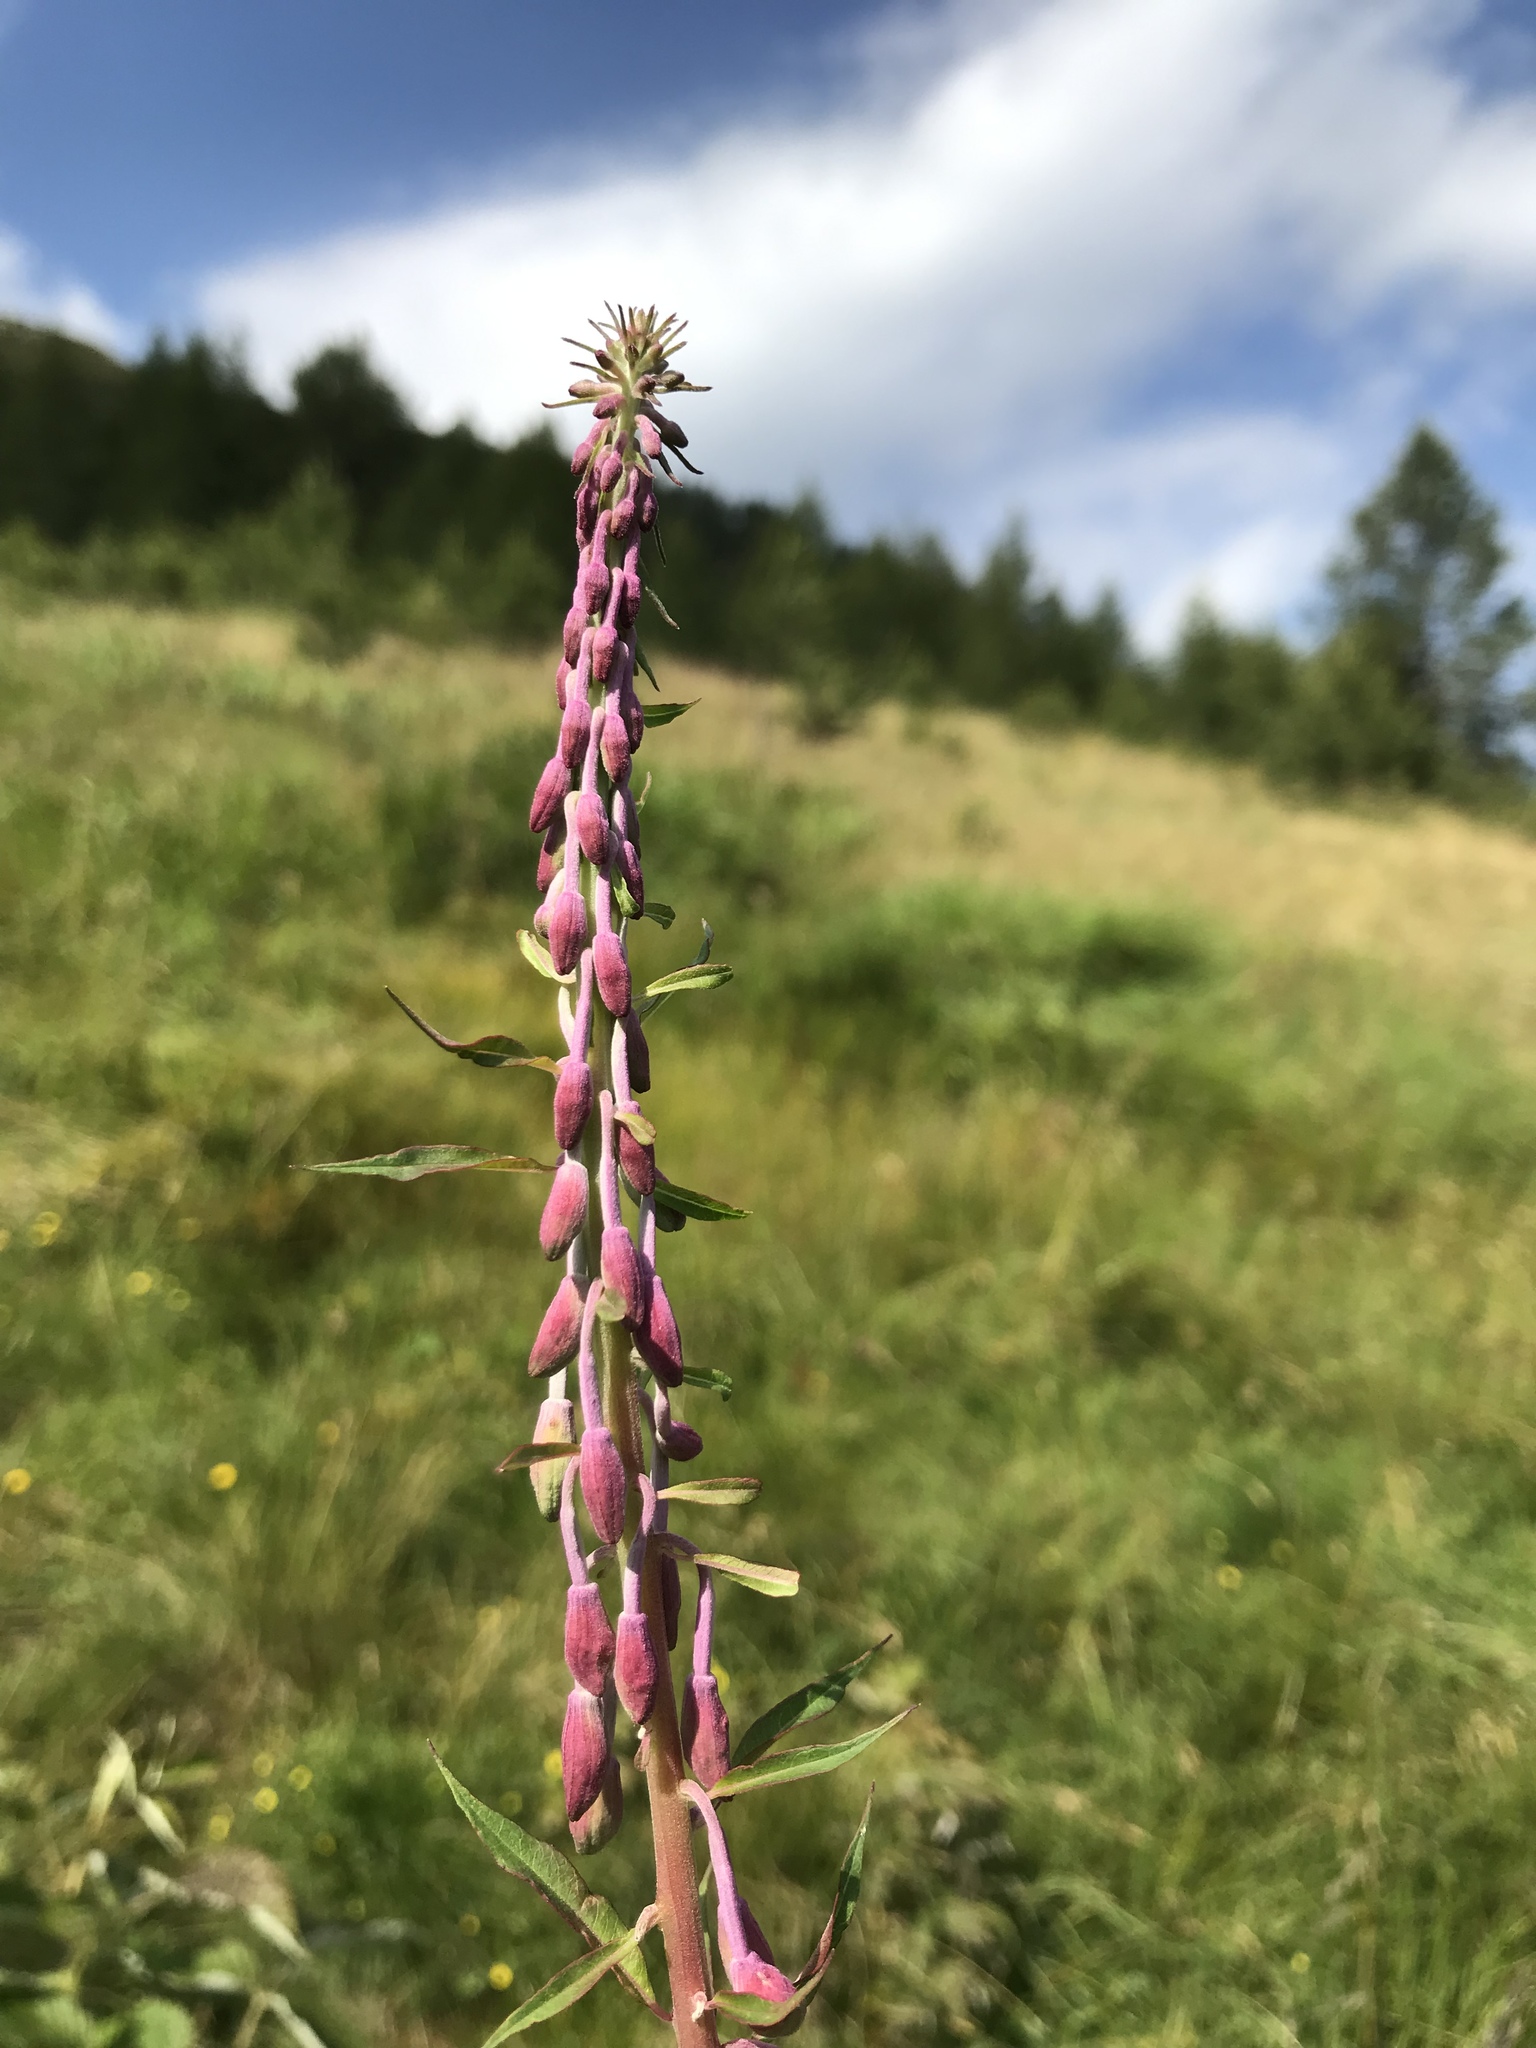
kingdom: Plantae
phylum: Tracheophyta
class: Magnoliopsida
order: Myrtales
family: Onagraceae
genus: Chamaenerion
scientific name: Chamaenerion angustifolium
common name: Fireweed
